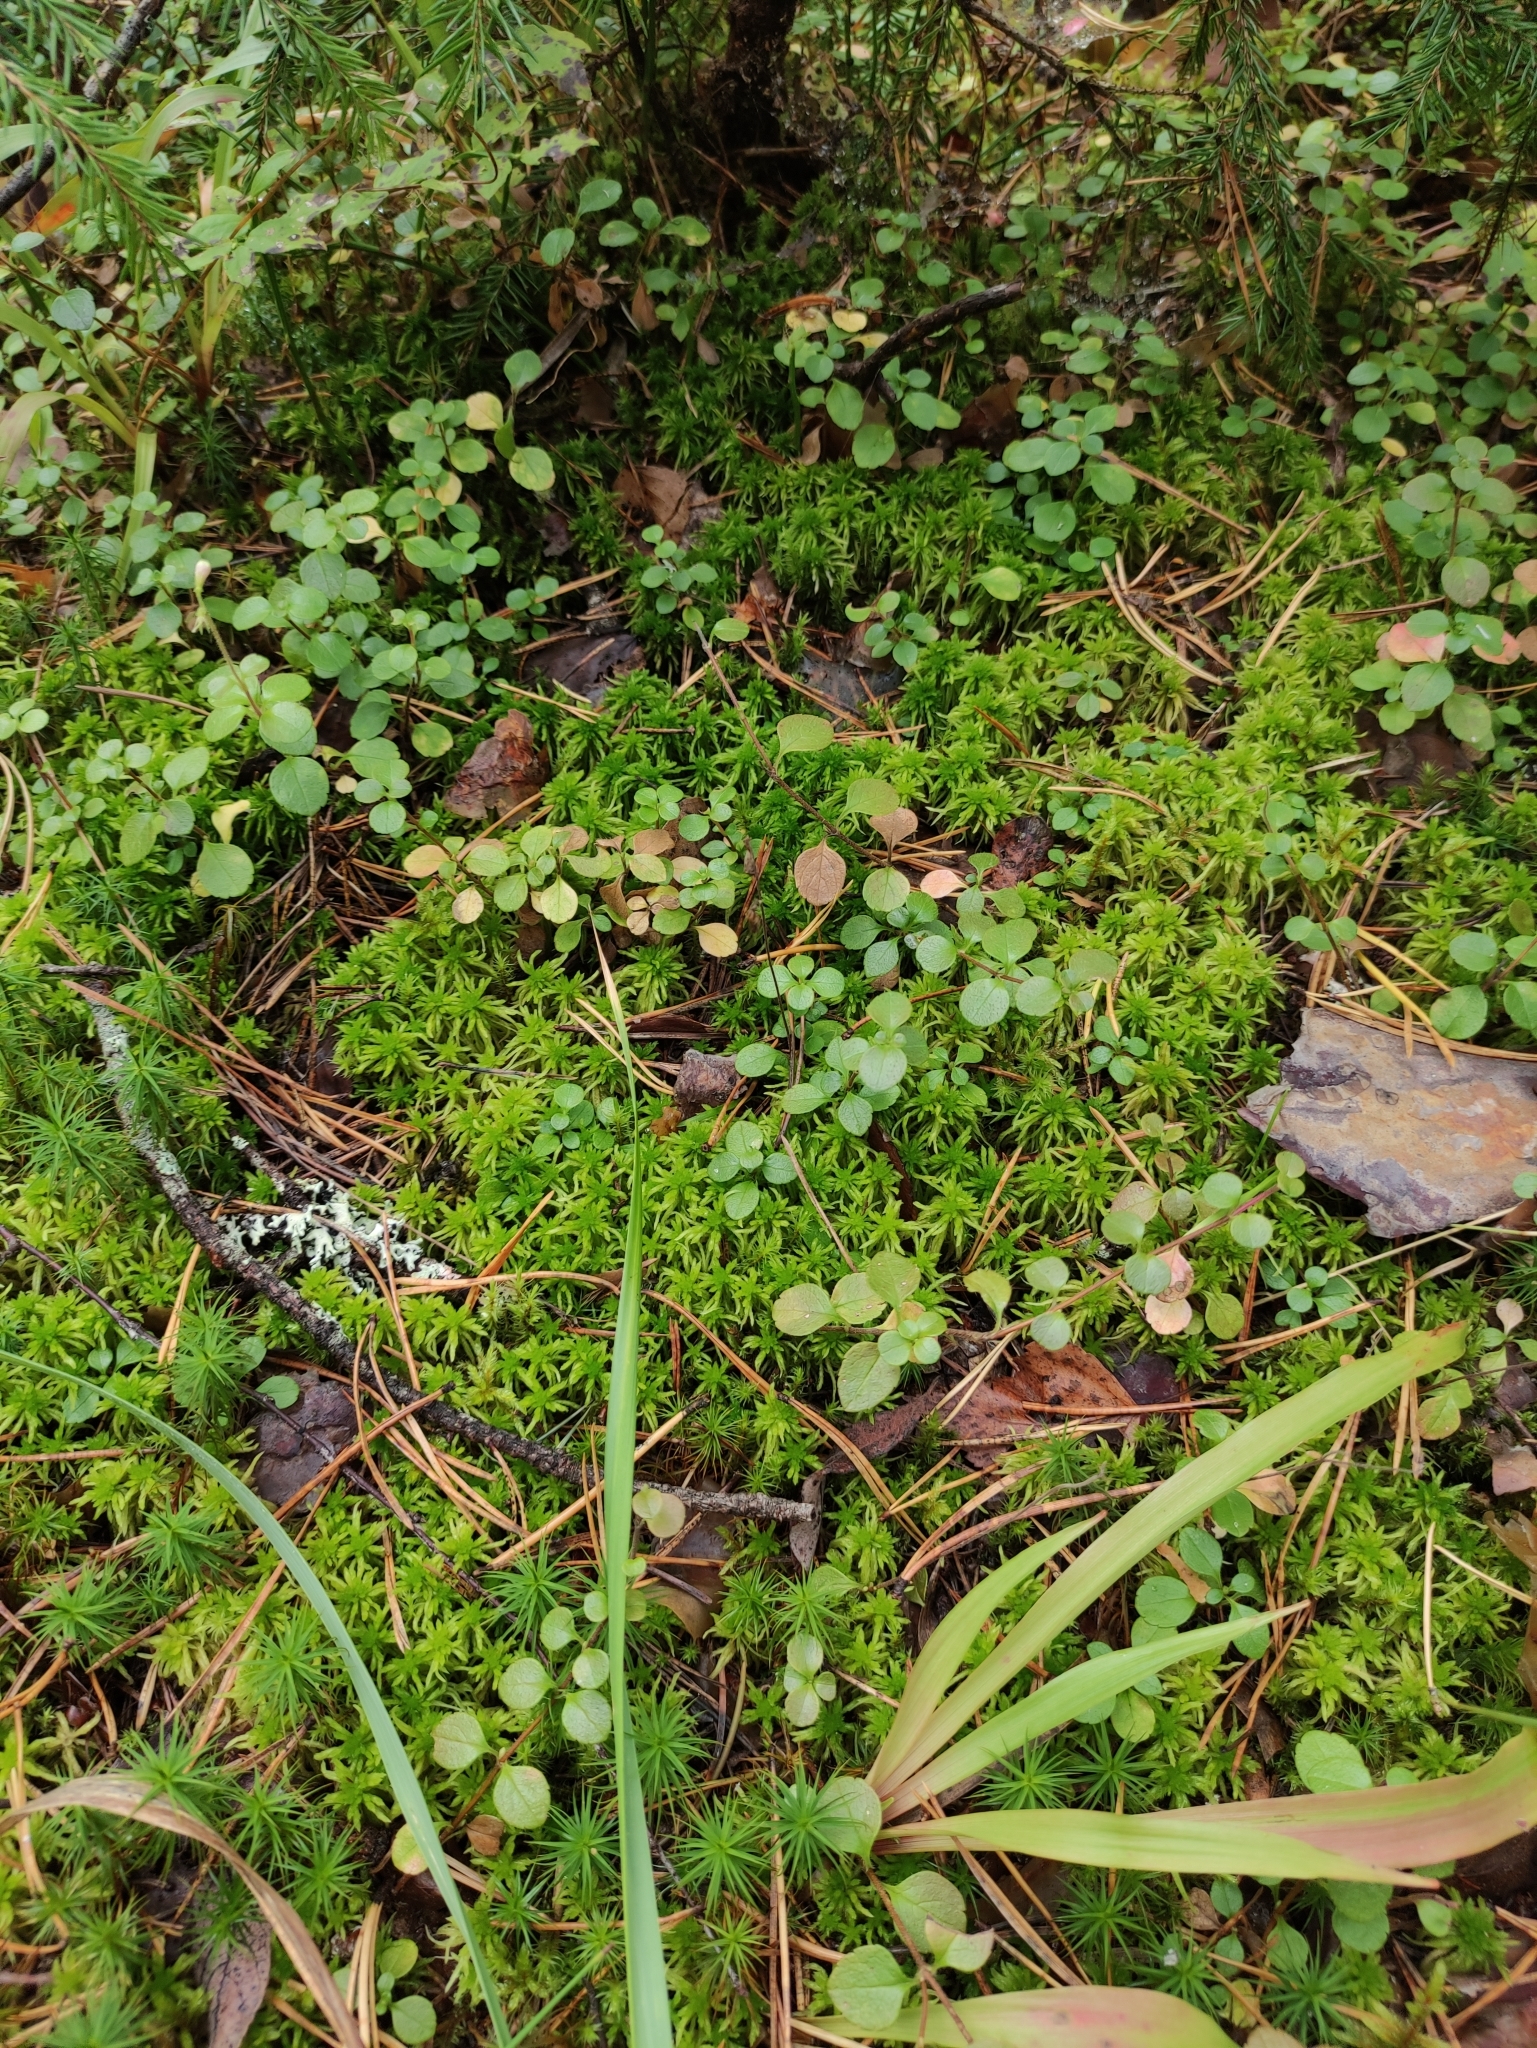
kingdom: Plantae
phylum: Tracheophyta
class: Magnoliopsida
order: Dipsacales
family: Caprifoliaceae
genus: Linnaea
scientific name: Linnaea borealis
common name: Twinflower
